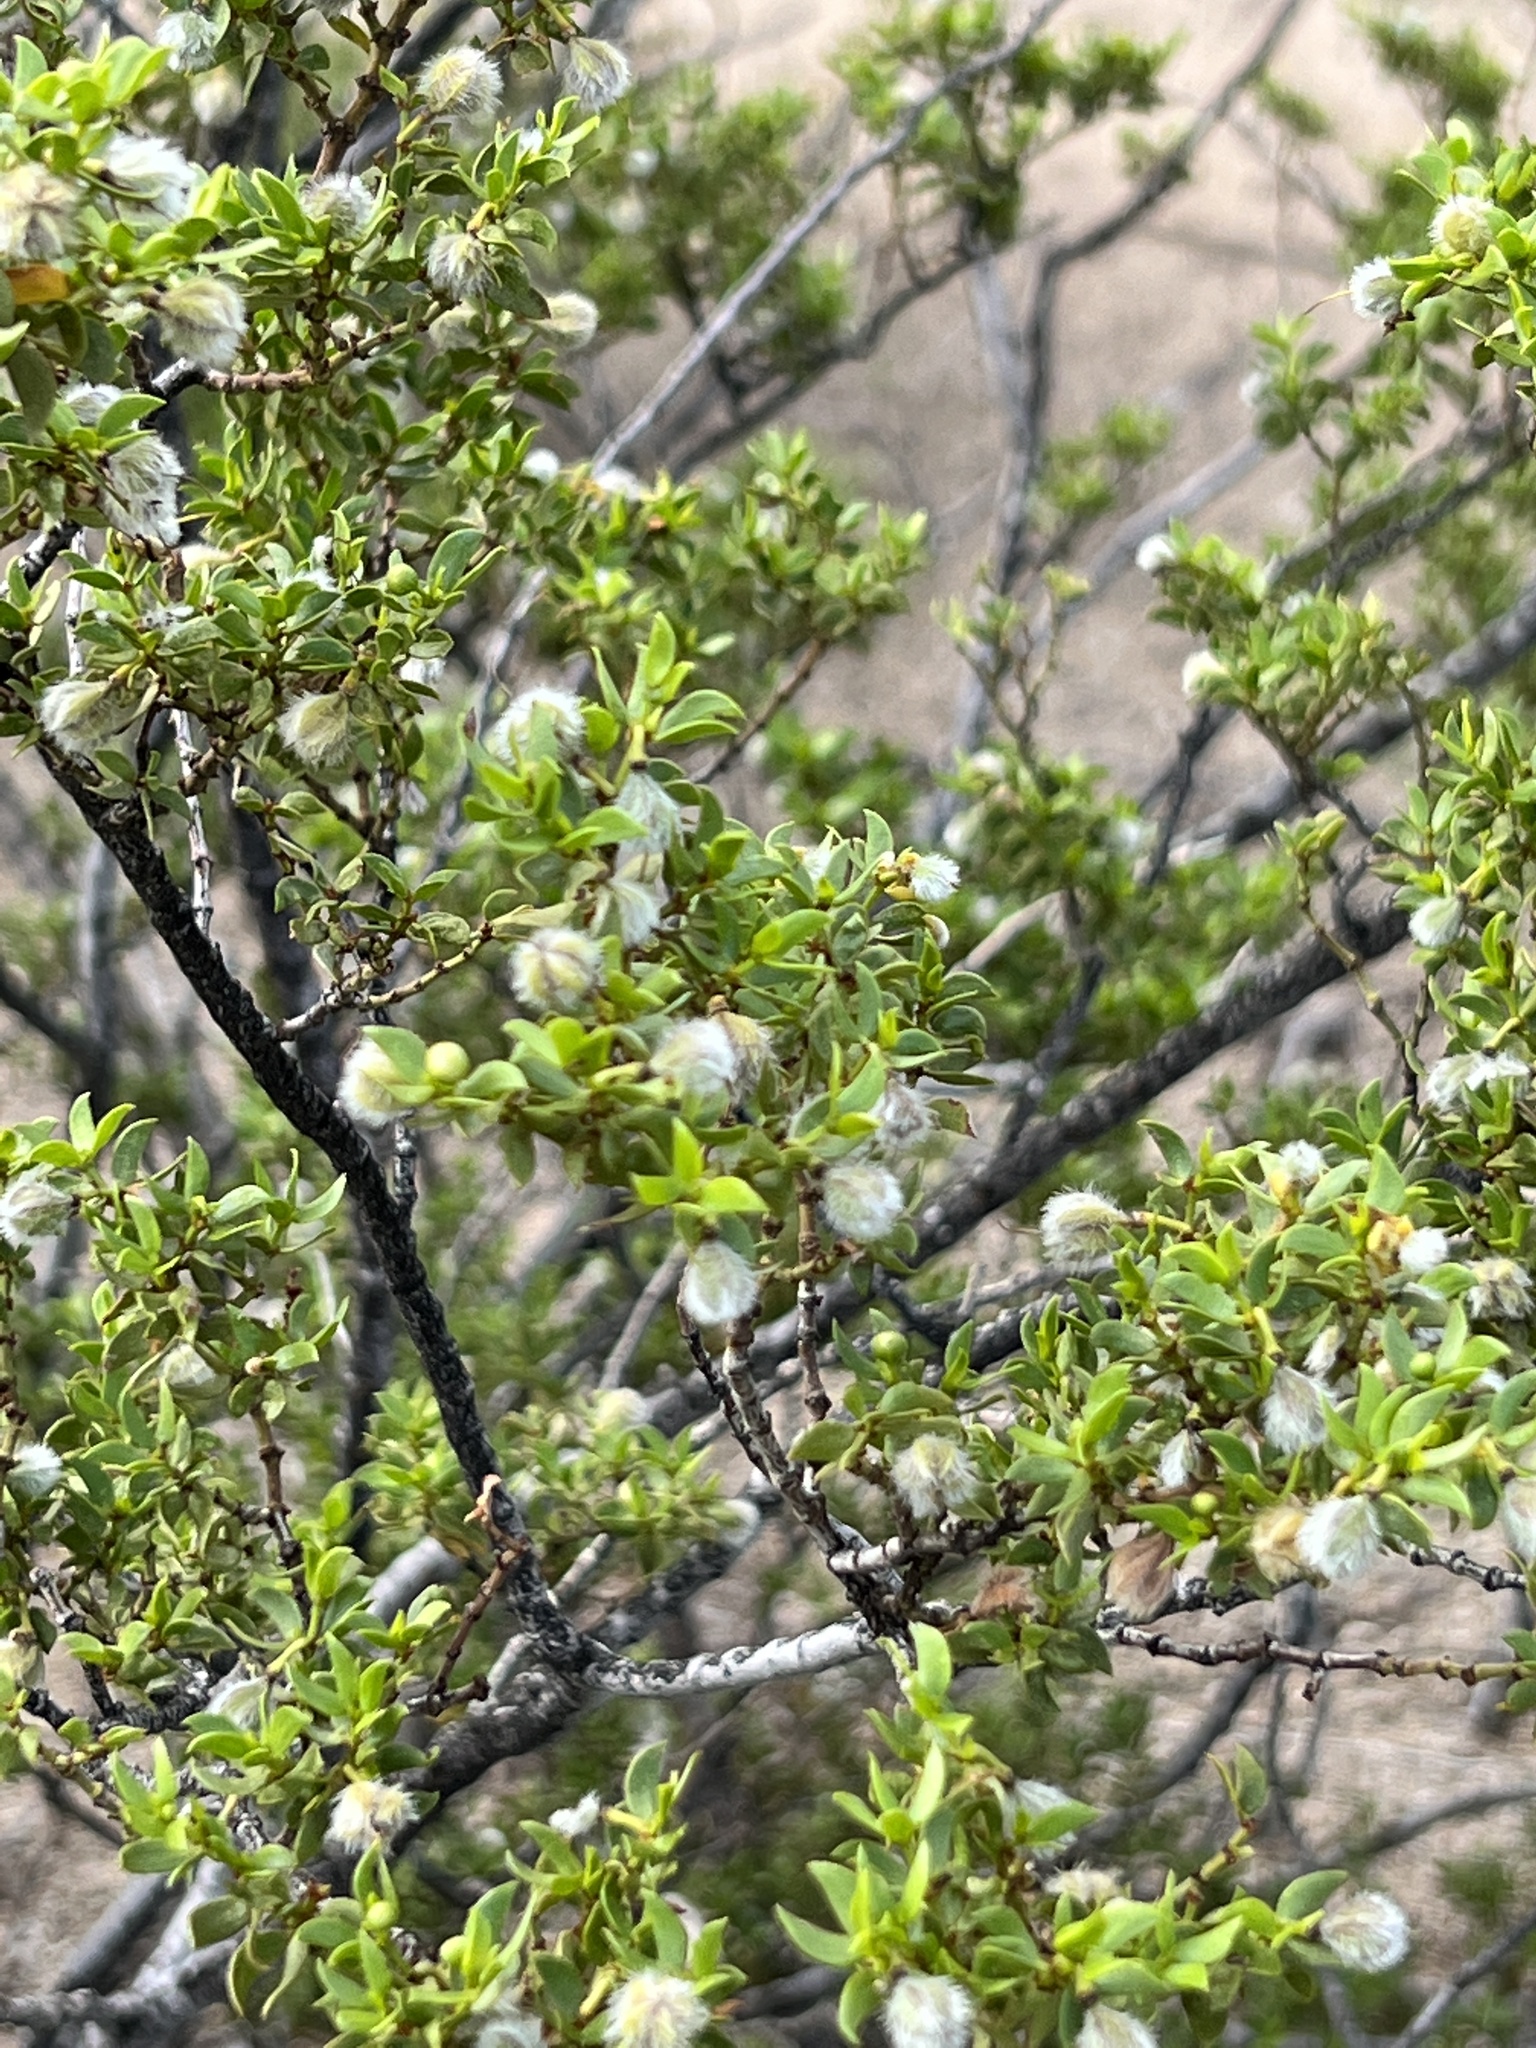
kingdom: Plantae
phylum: Tracheophyta
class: Magnoliopsida
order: Zygophyllales
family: Zygophyllaceae
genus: Larrea
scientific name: Larrea tridentata
